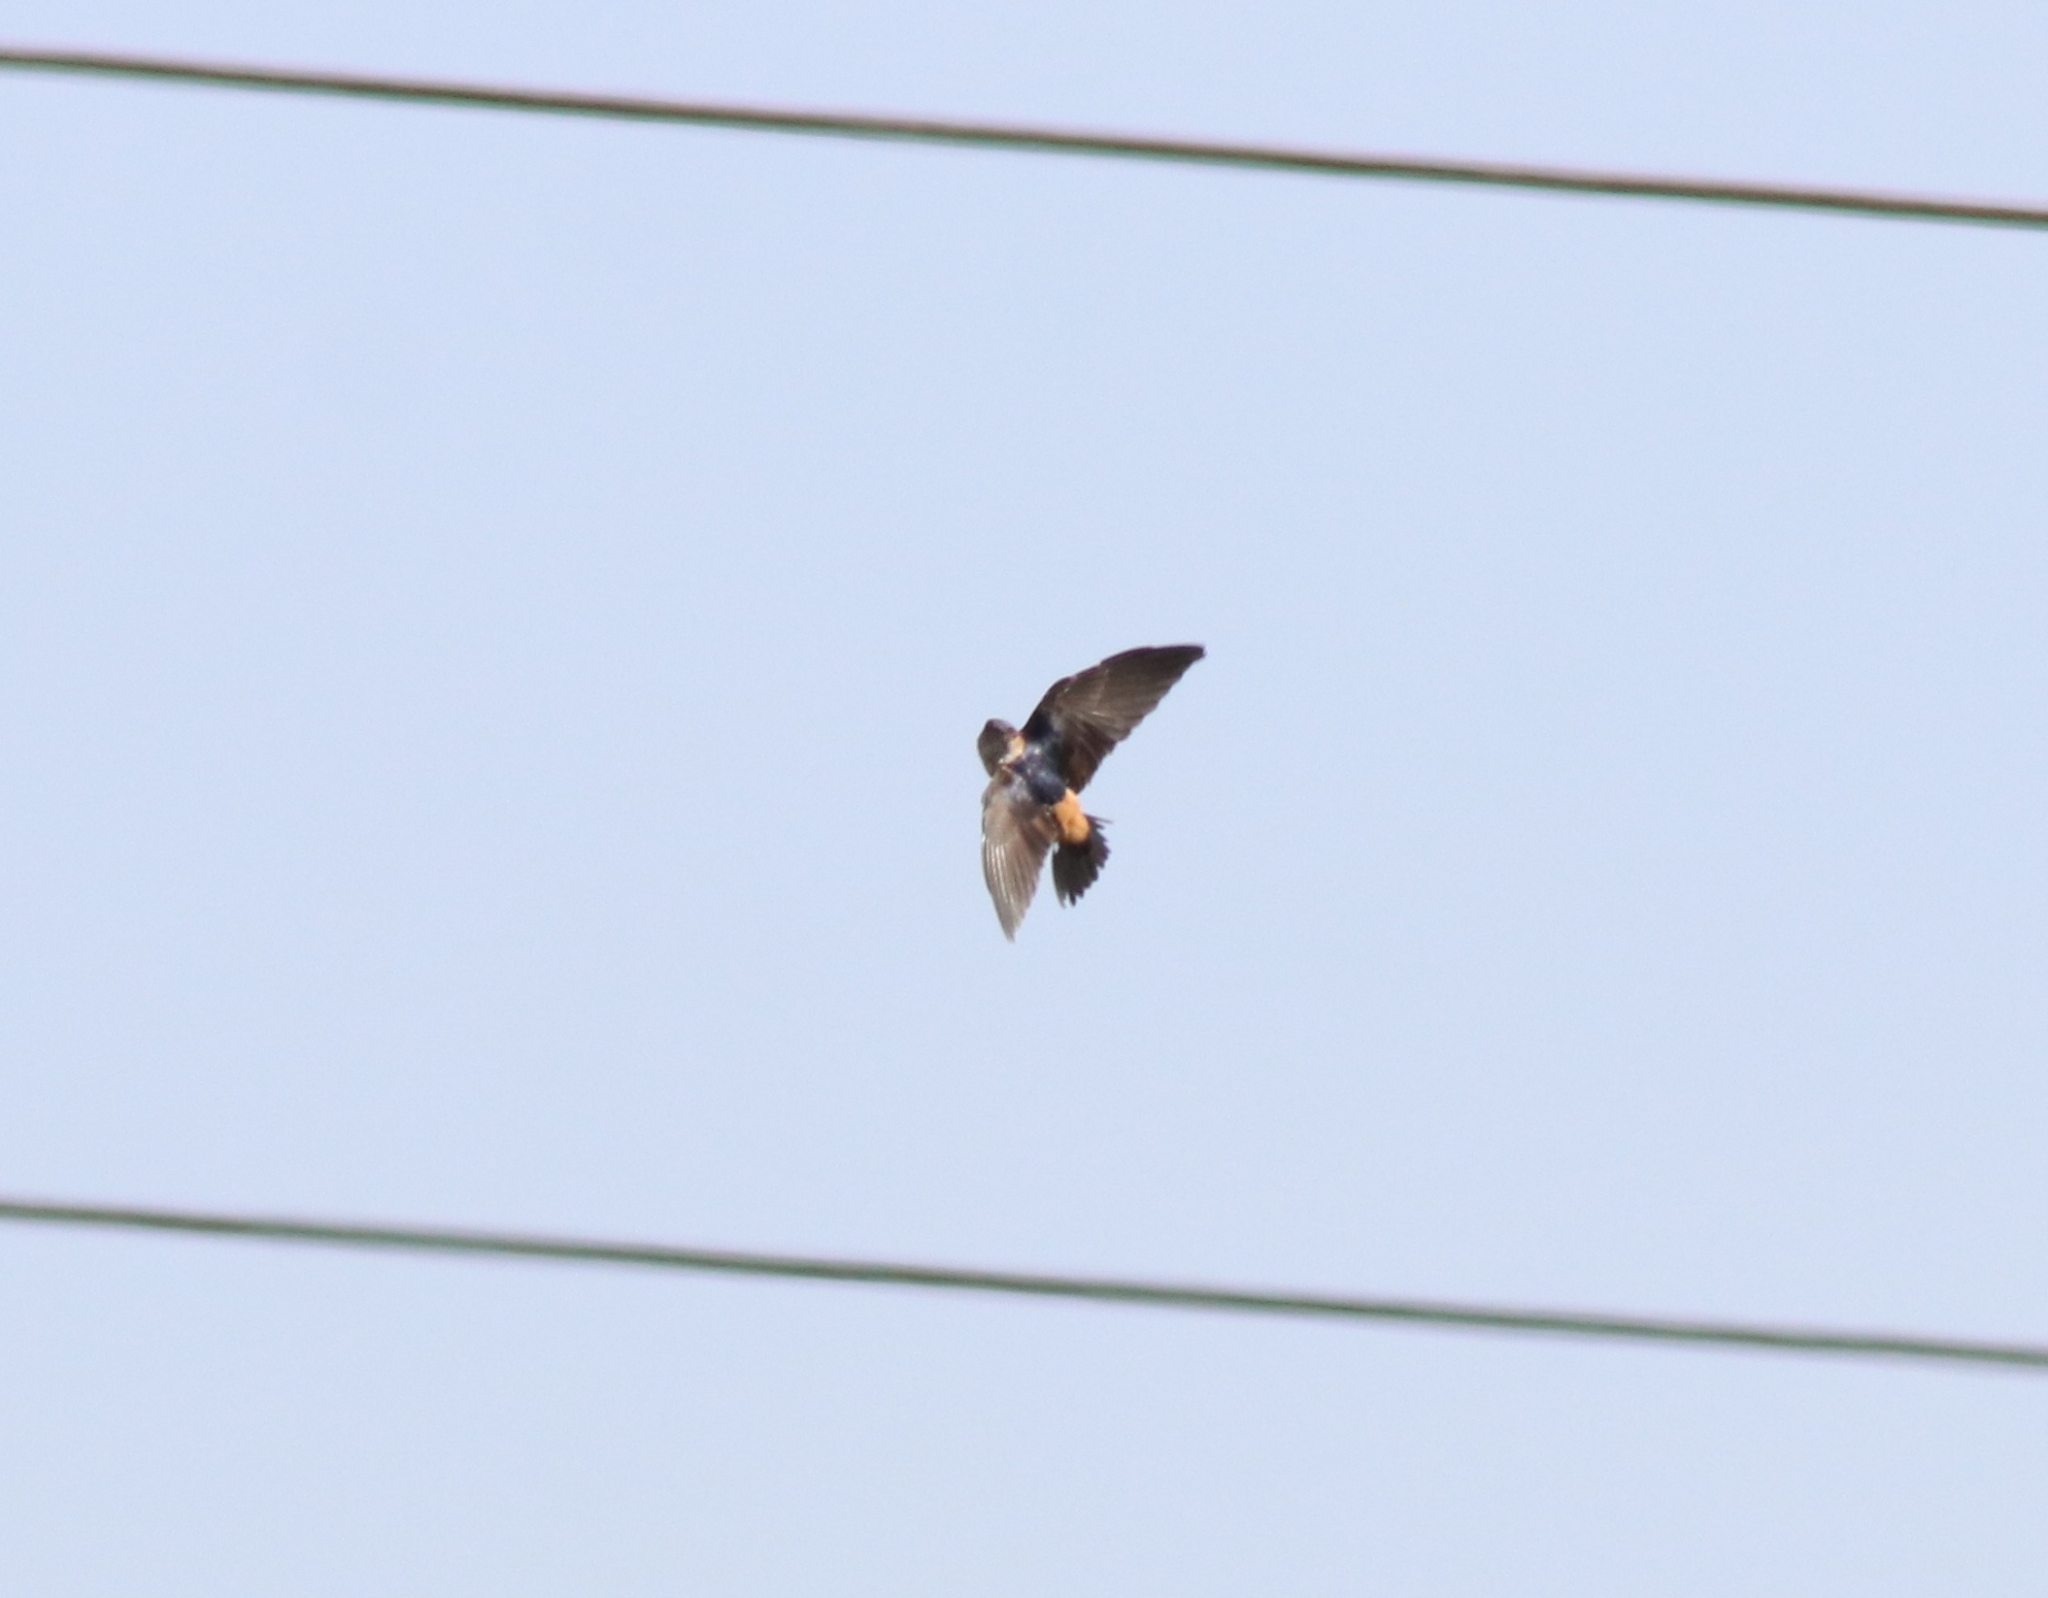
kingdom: Animalia
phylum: Chordata
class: Aves
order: Passeriformes
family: Hirundinidae
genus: Cecropis
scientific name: Cecropis daurica
